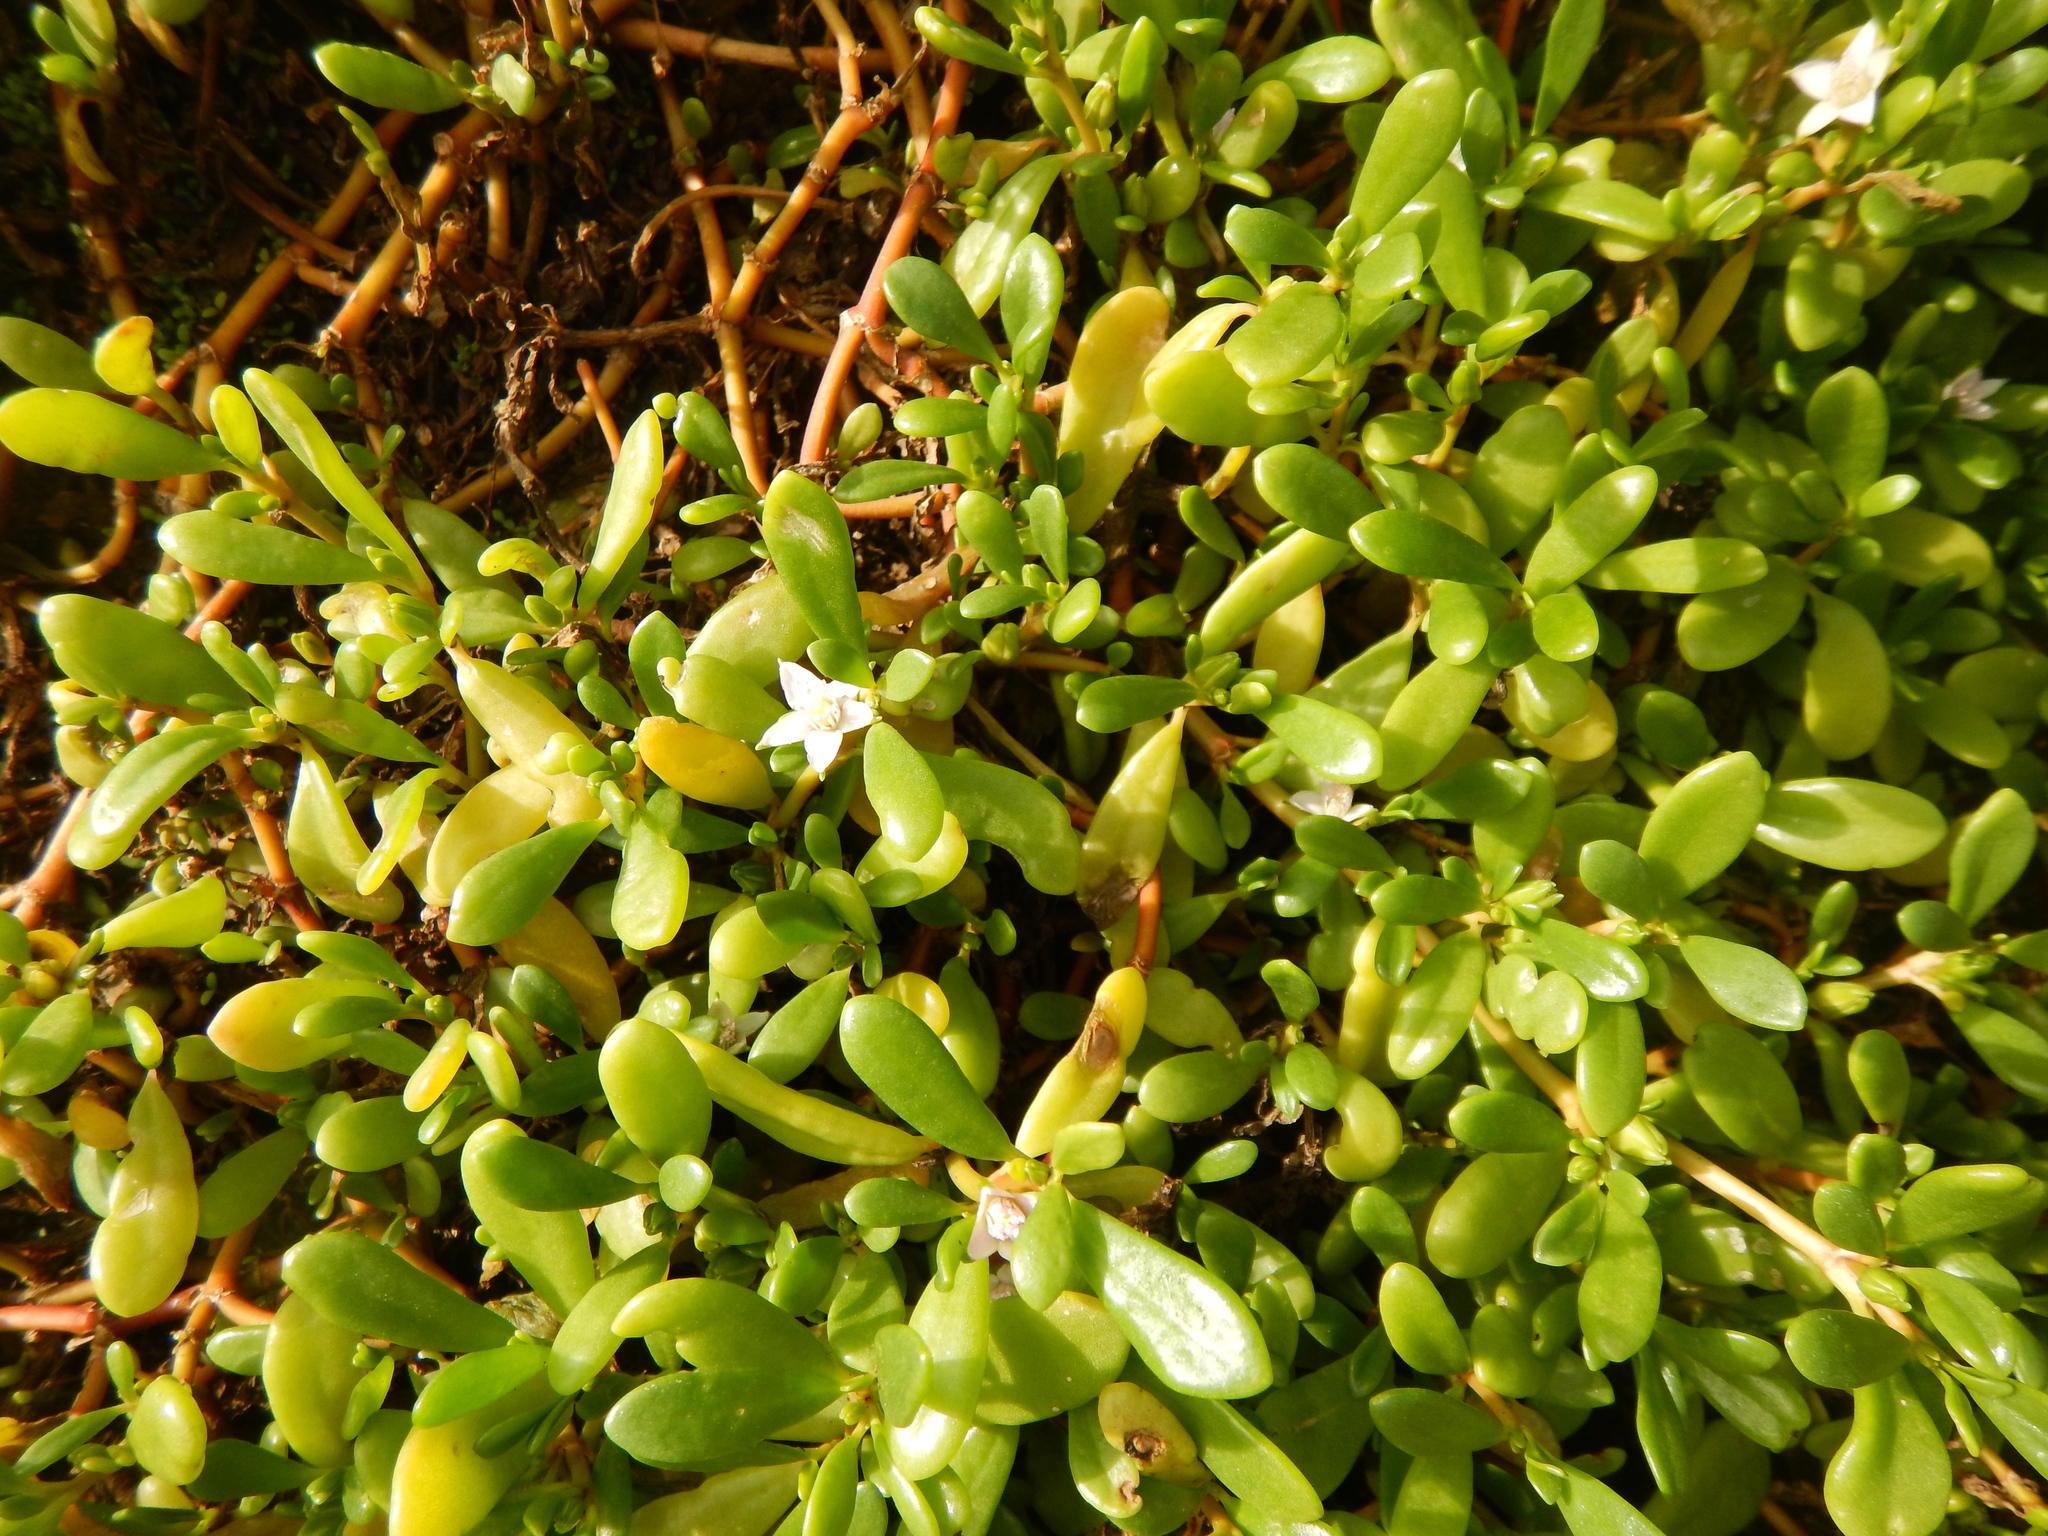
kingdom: Plantae
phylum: Tracheophyta
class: Magnoliopsida
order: Caryophyllales
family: Aizoaceae
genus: Sesuvium
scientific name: Sesuvium portulacastrum
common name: Sea-purslane
